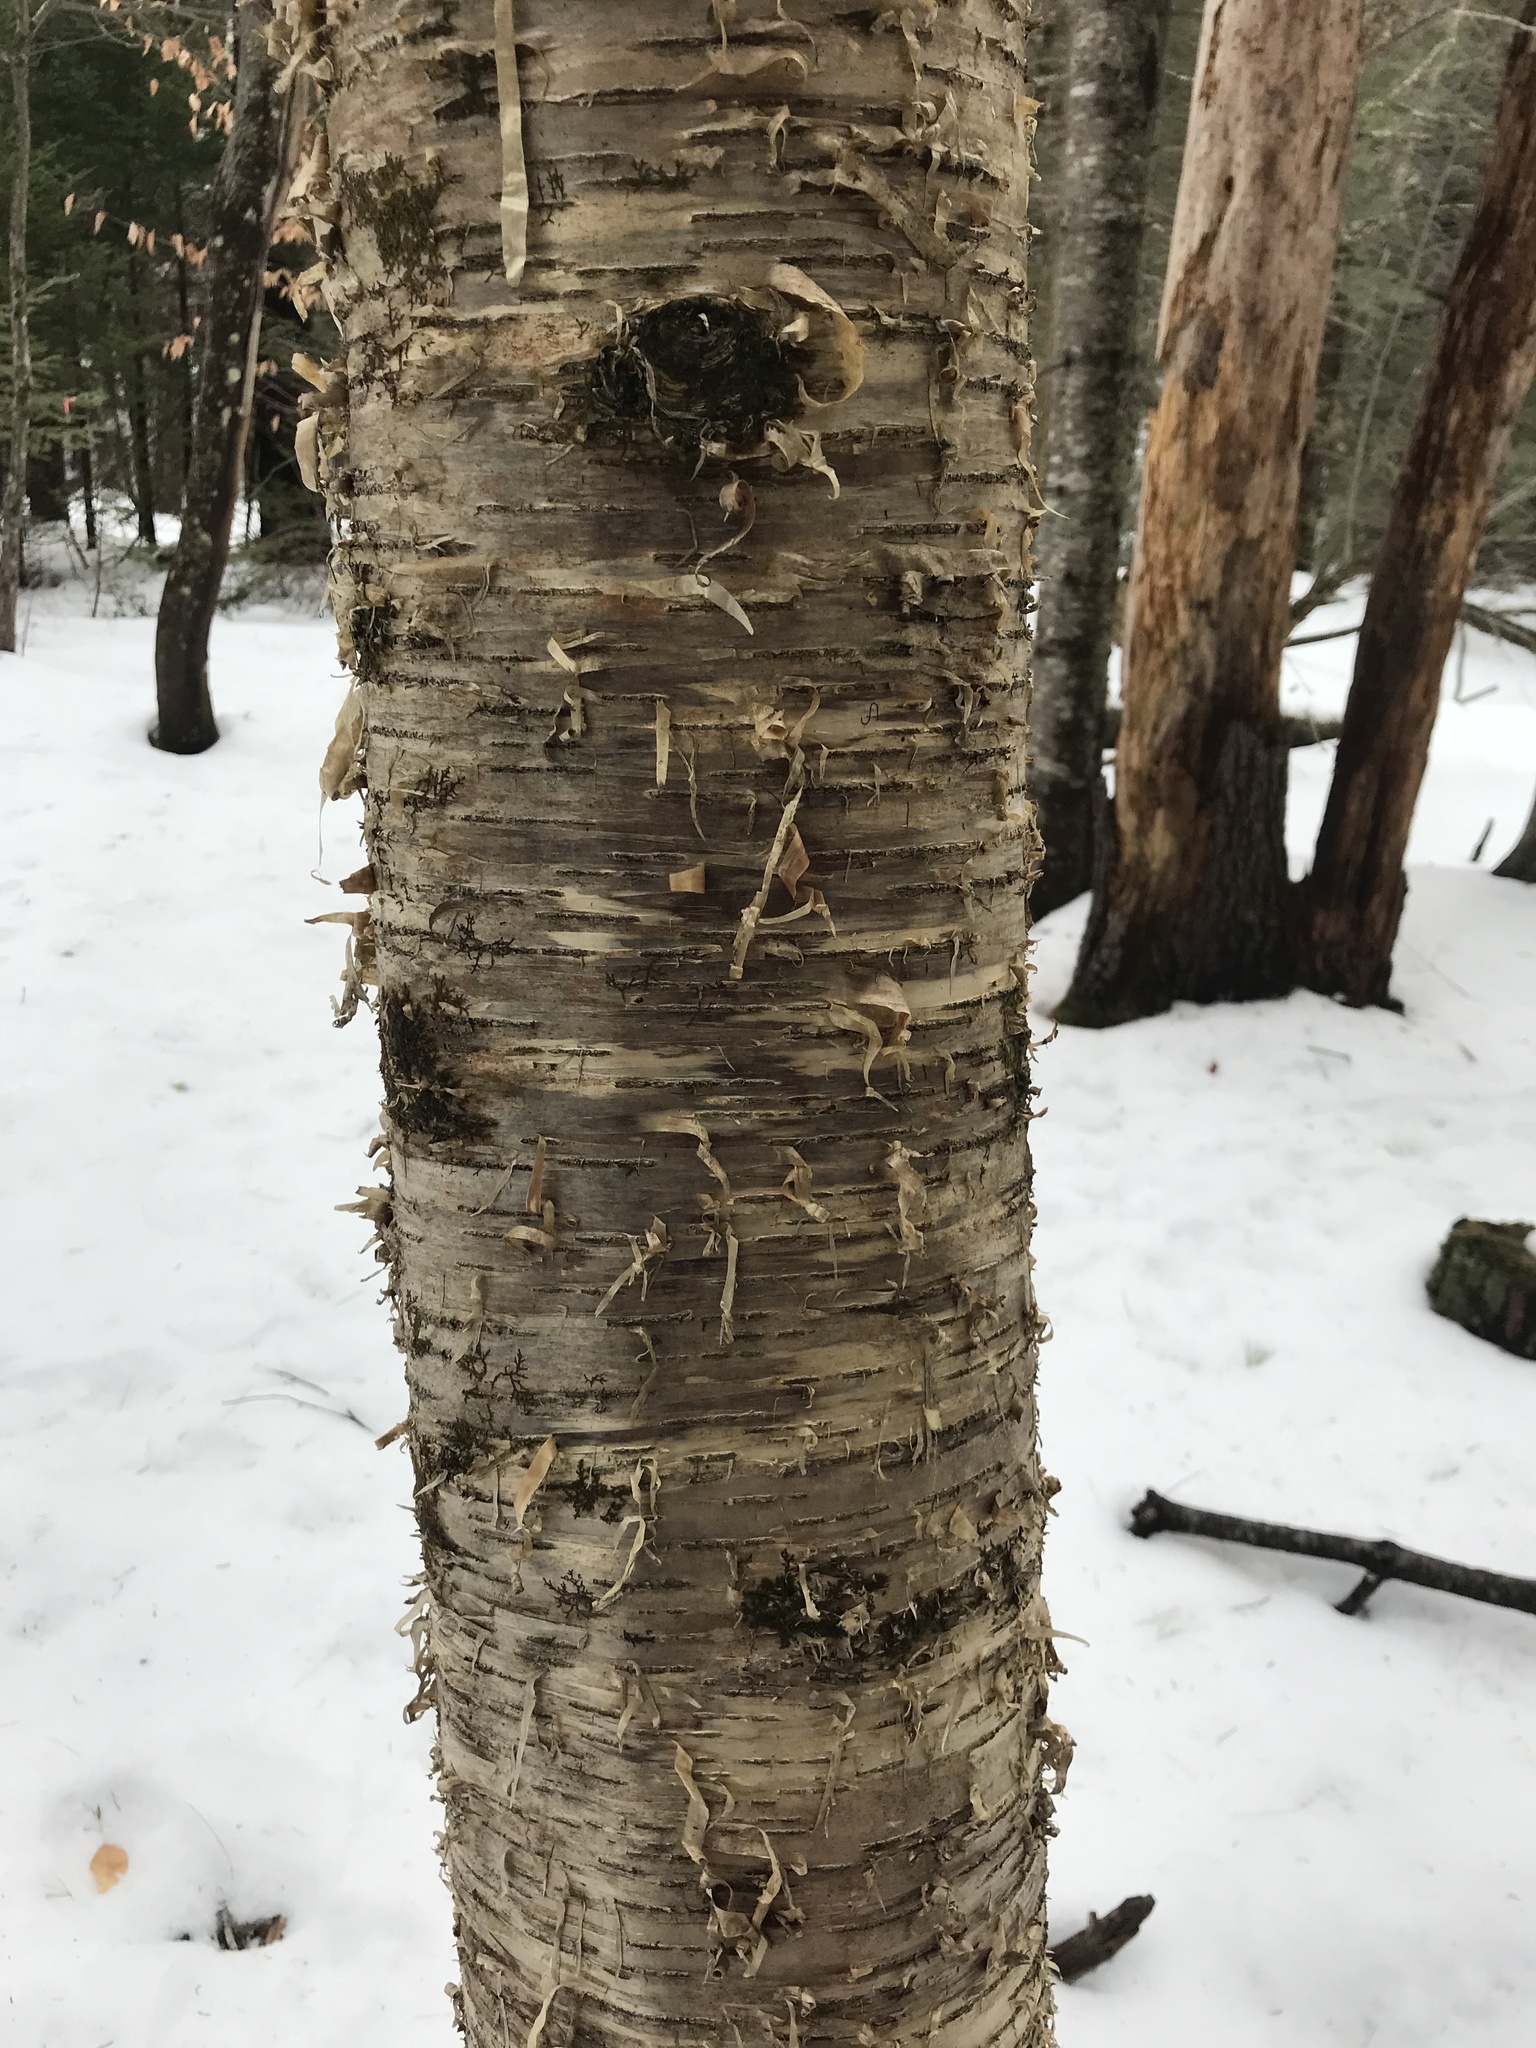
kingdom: Plantae
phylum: Tracheophyta
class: Magnoliopsida
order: Fagales
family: Betulaceae
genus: Betula
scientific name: Betula alleghaniensis
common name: Yellow birch
